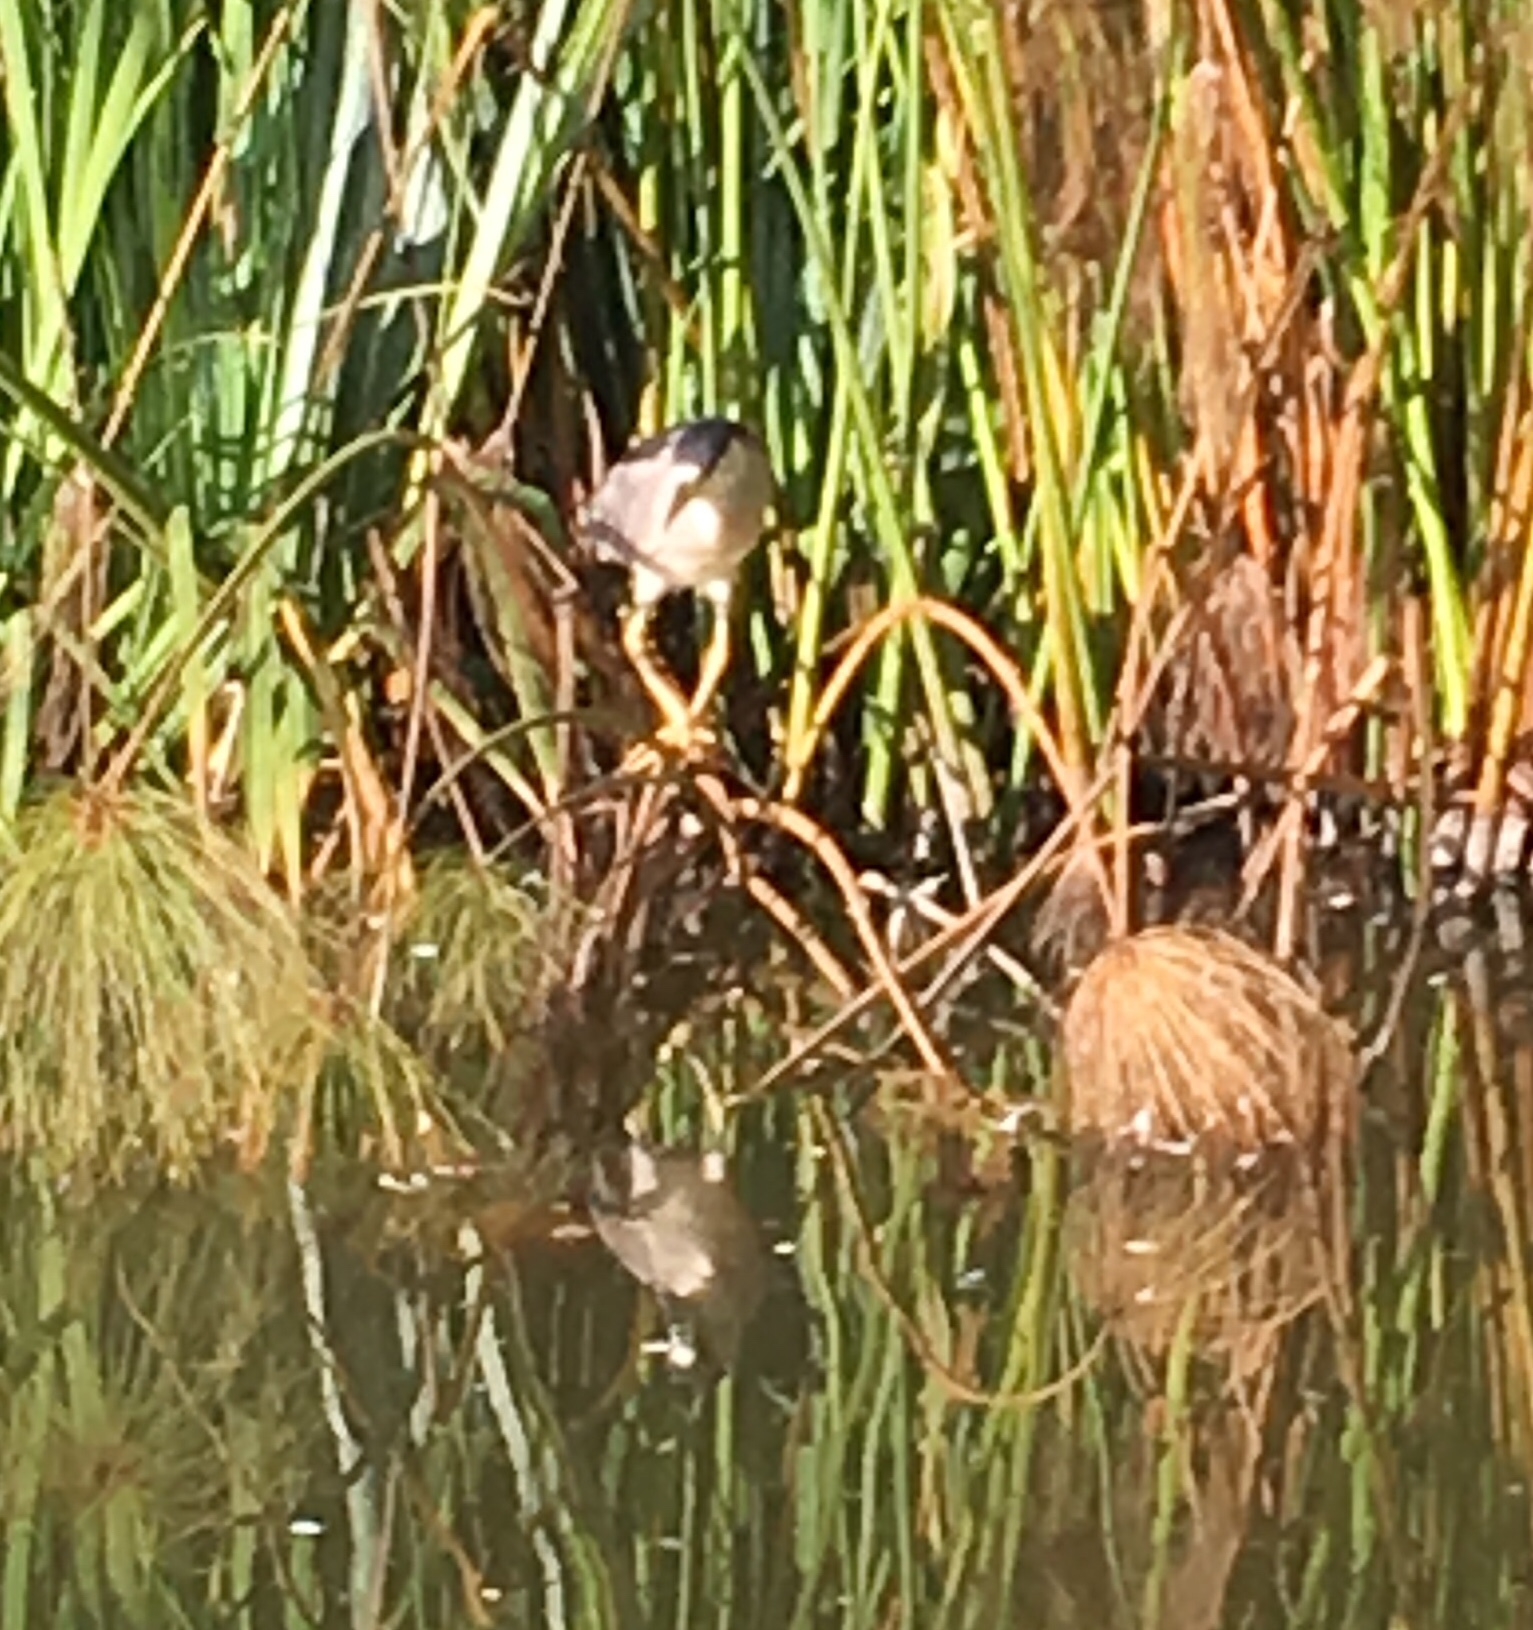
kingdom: Animalia
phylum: Chordata
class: Aves
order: Pelecaniformes
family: Ardeidae
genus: Nycticorax
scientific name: Nycticorax nycticorax
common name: Black-crowned night heron
